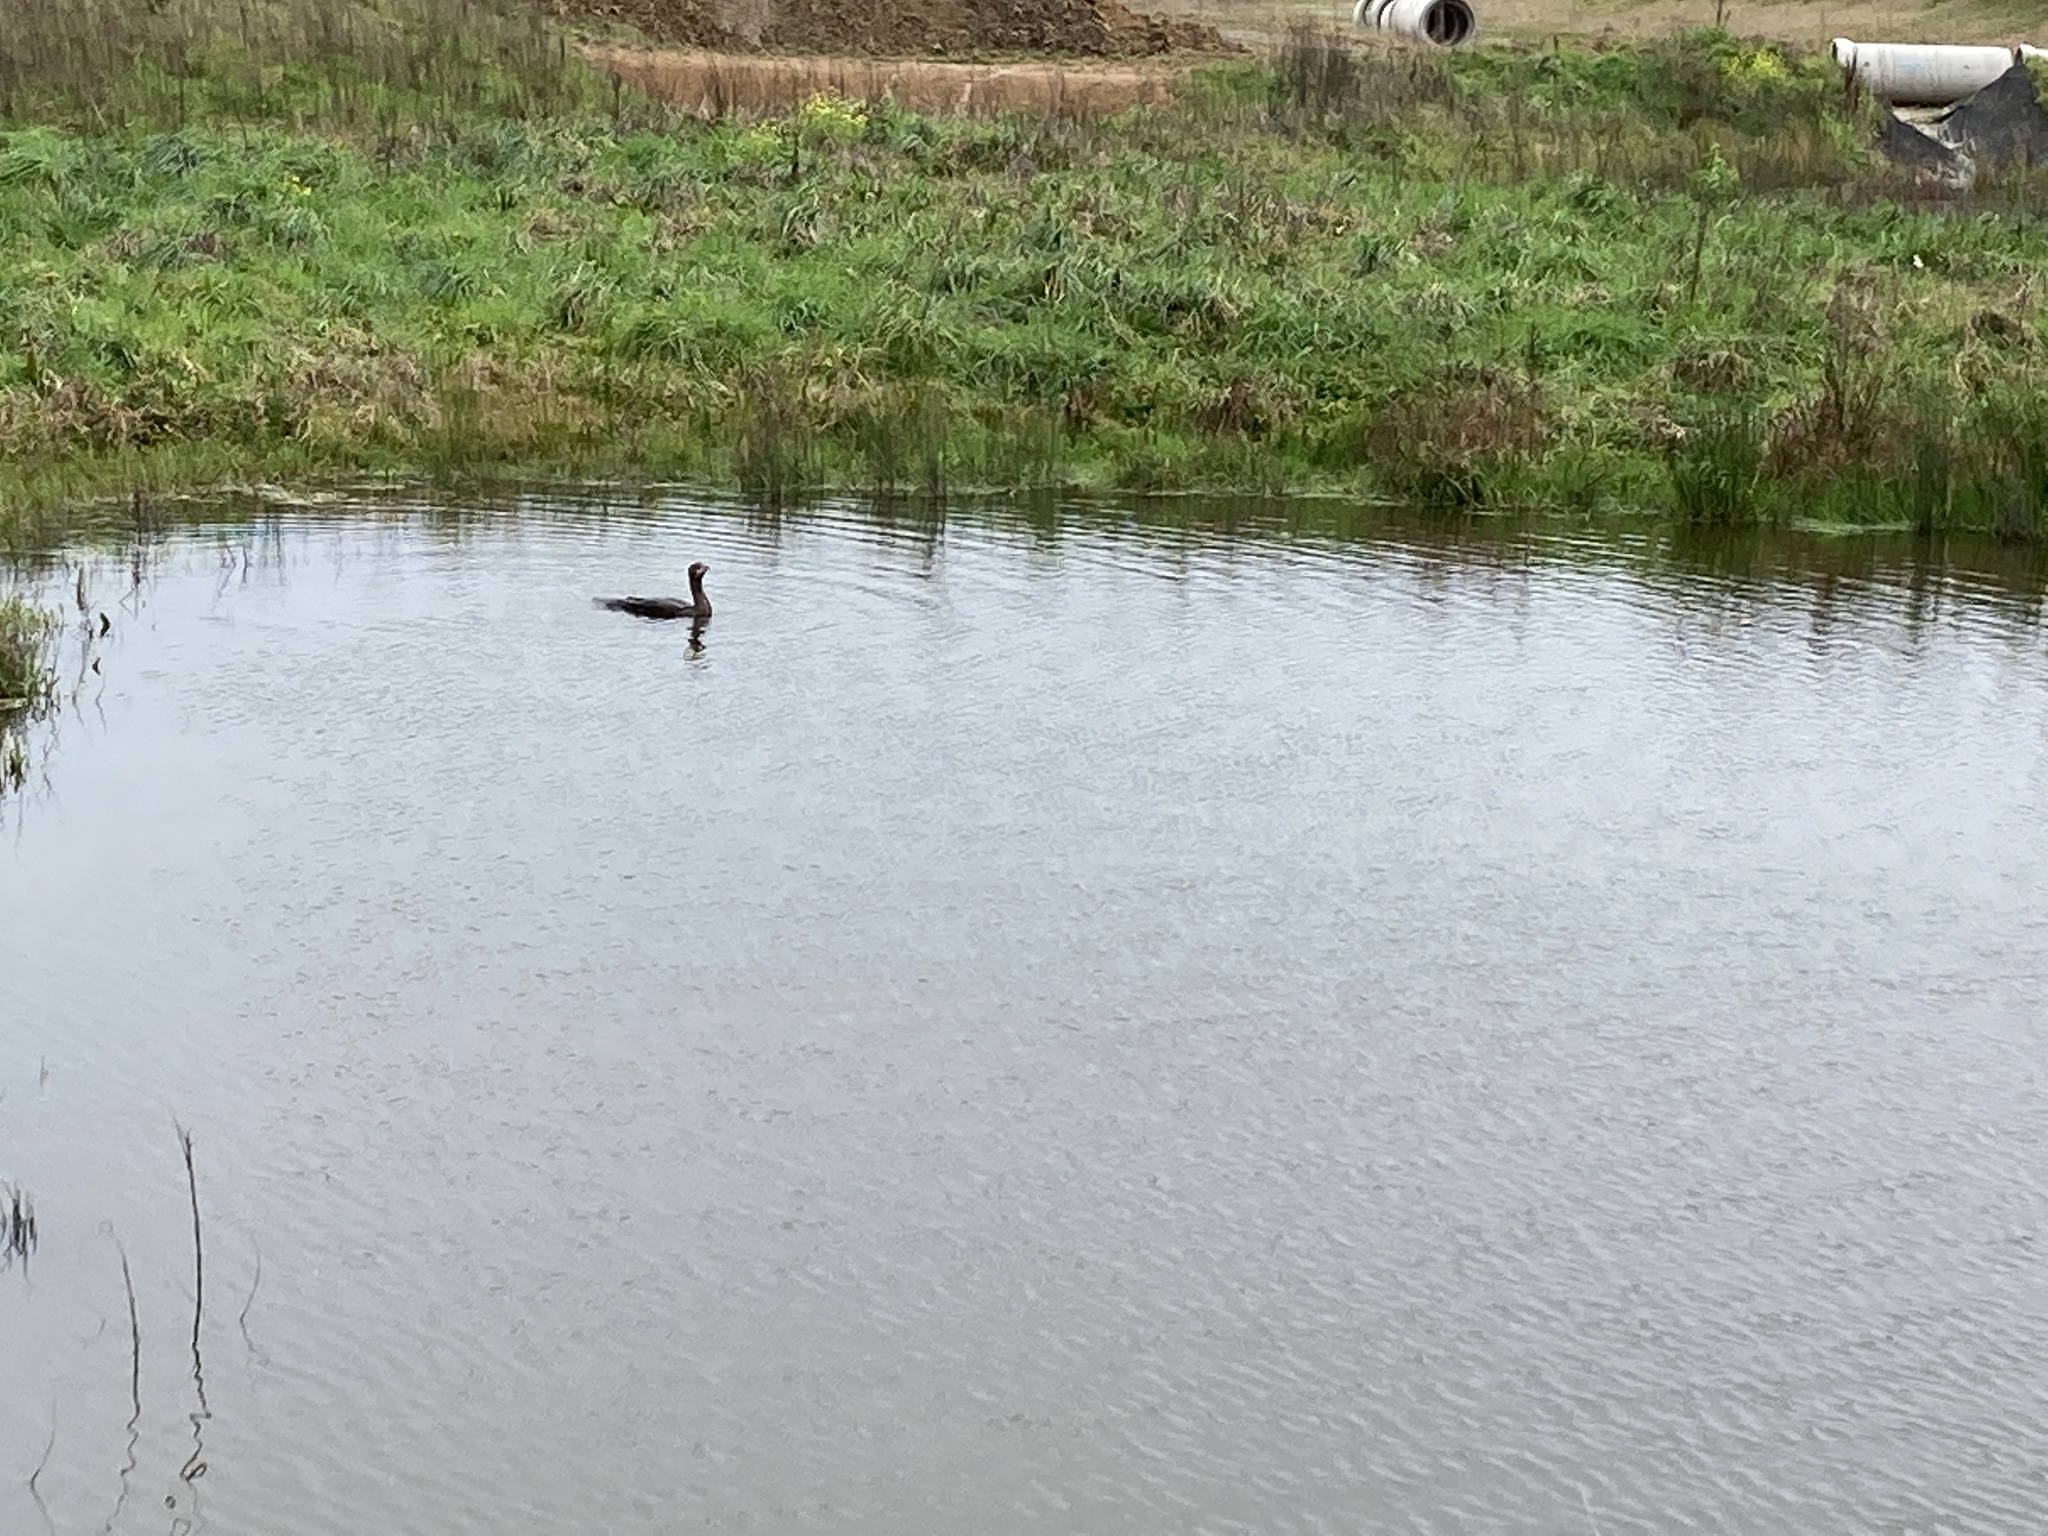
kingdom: Animalia
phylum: Chordata
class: Aves
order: Suliformes
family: Phalacrocoracidae
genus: Phalacrocorax
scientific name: Phalacrocorax carbo
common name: Great cormorant
